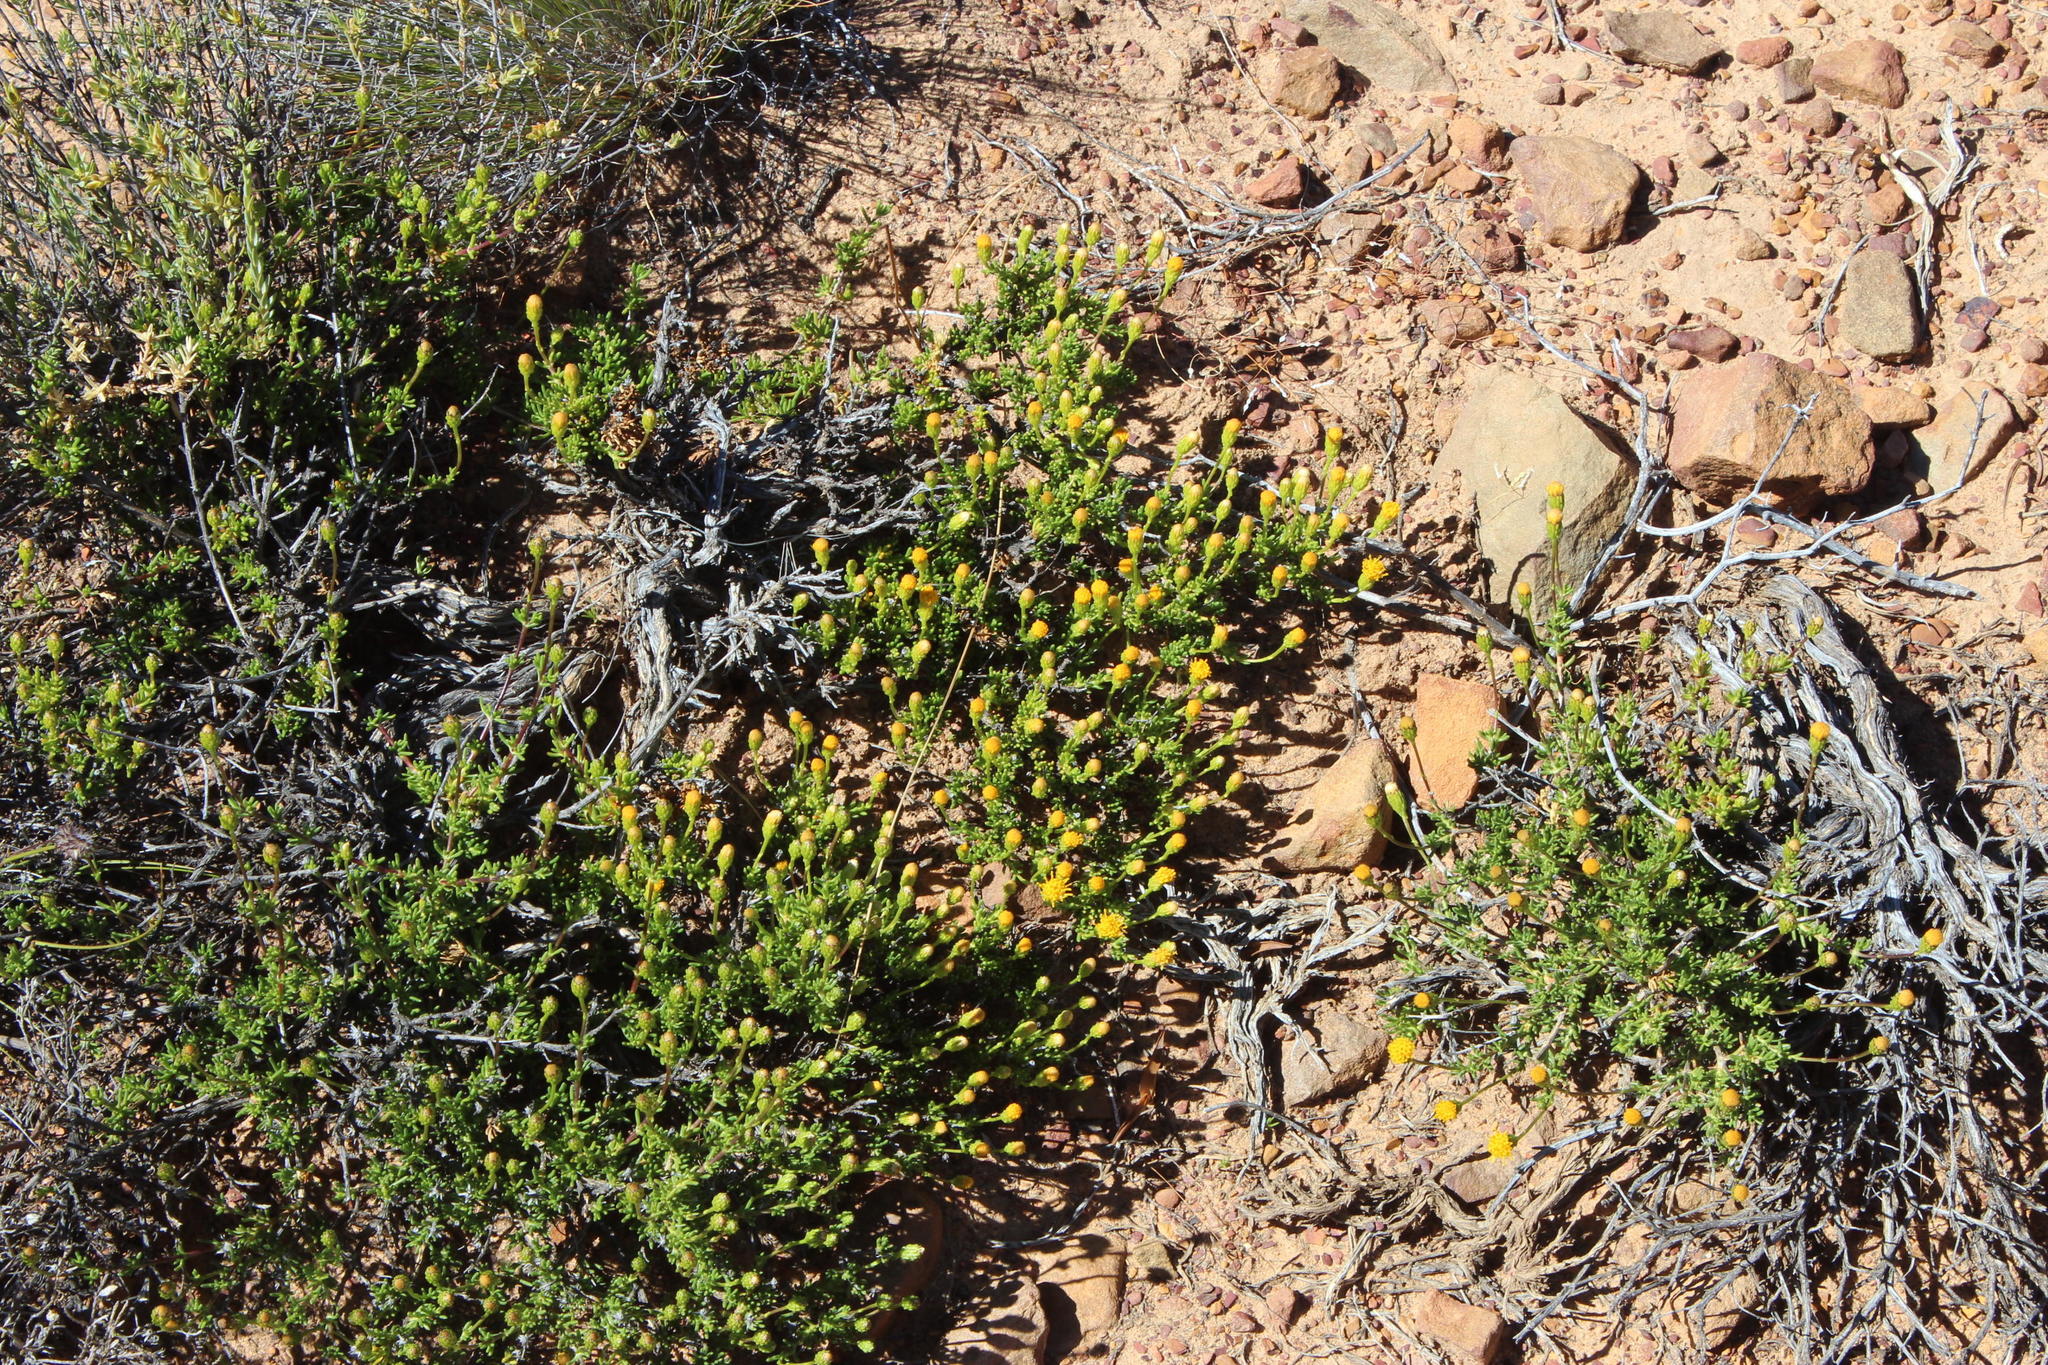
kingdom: Plantae
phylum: Tracheophyta
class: Magnoliopsida
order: Asterales
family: Asteraceae
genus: Pteronia
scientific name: Pteronia cederbergensis
